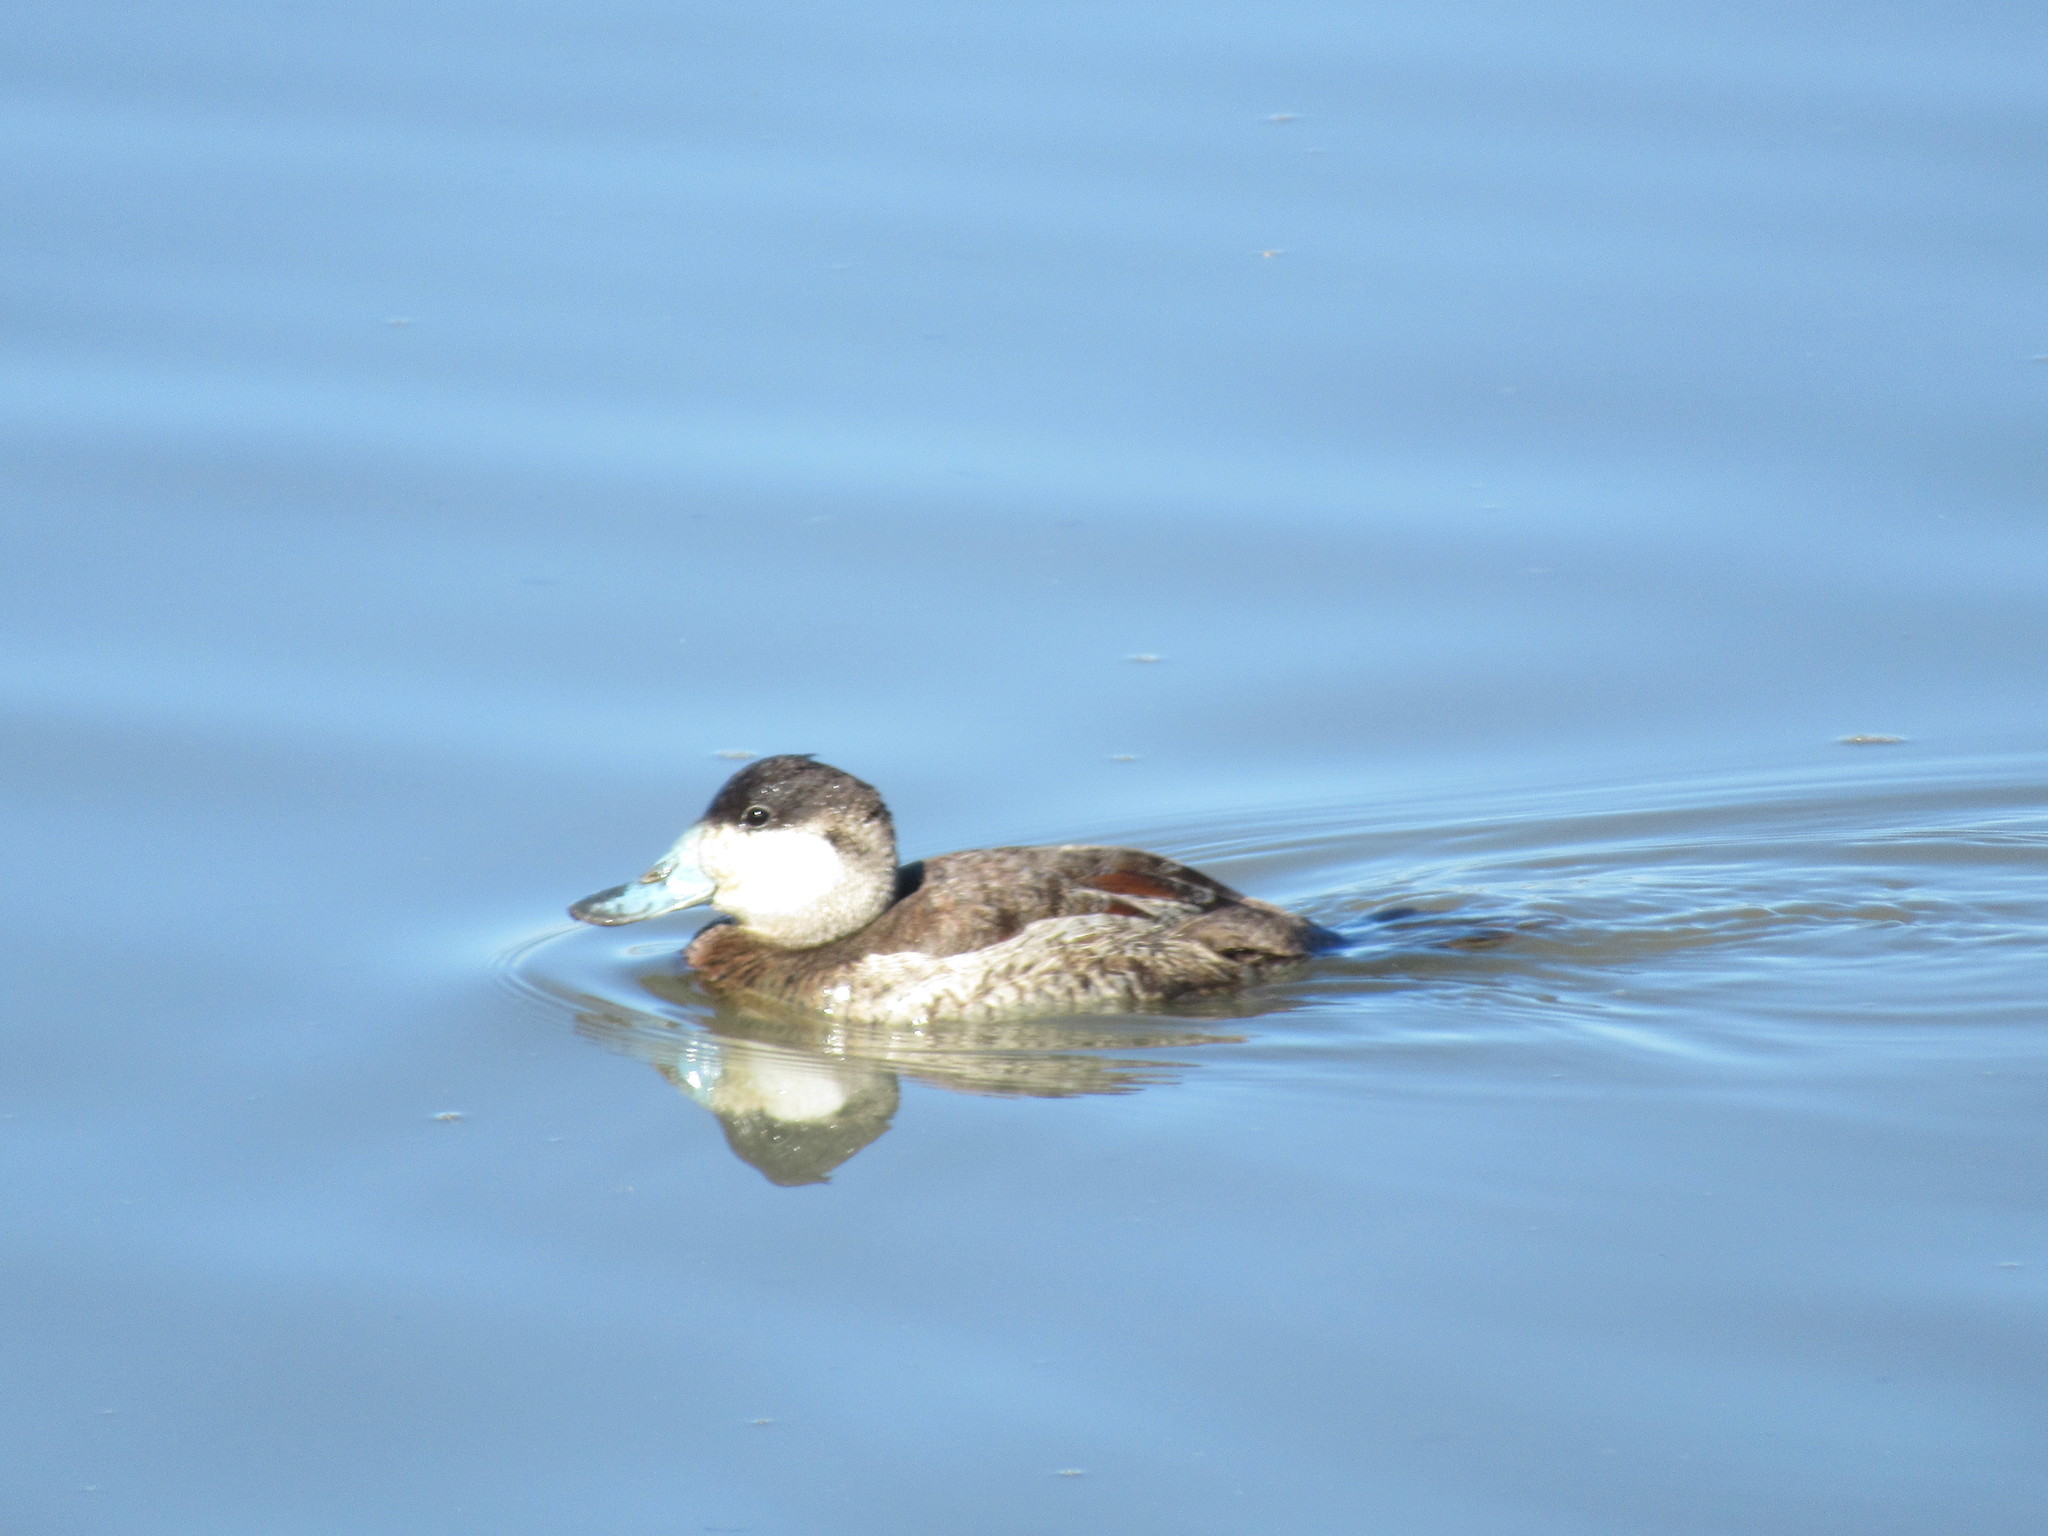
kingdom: Animalia
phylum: Chordata
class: Aves
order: Anseriformes
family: Anatidae
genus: Oxyura
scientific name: Oxyura jamaicensis
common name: Ruddy duck
